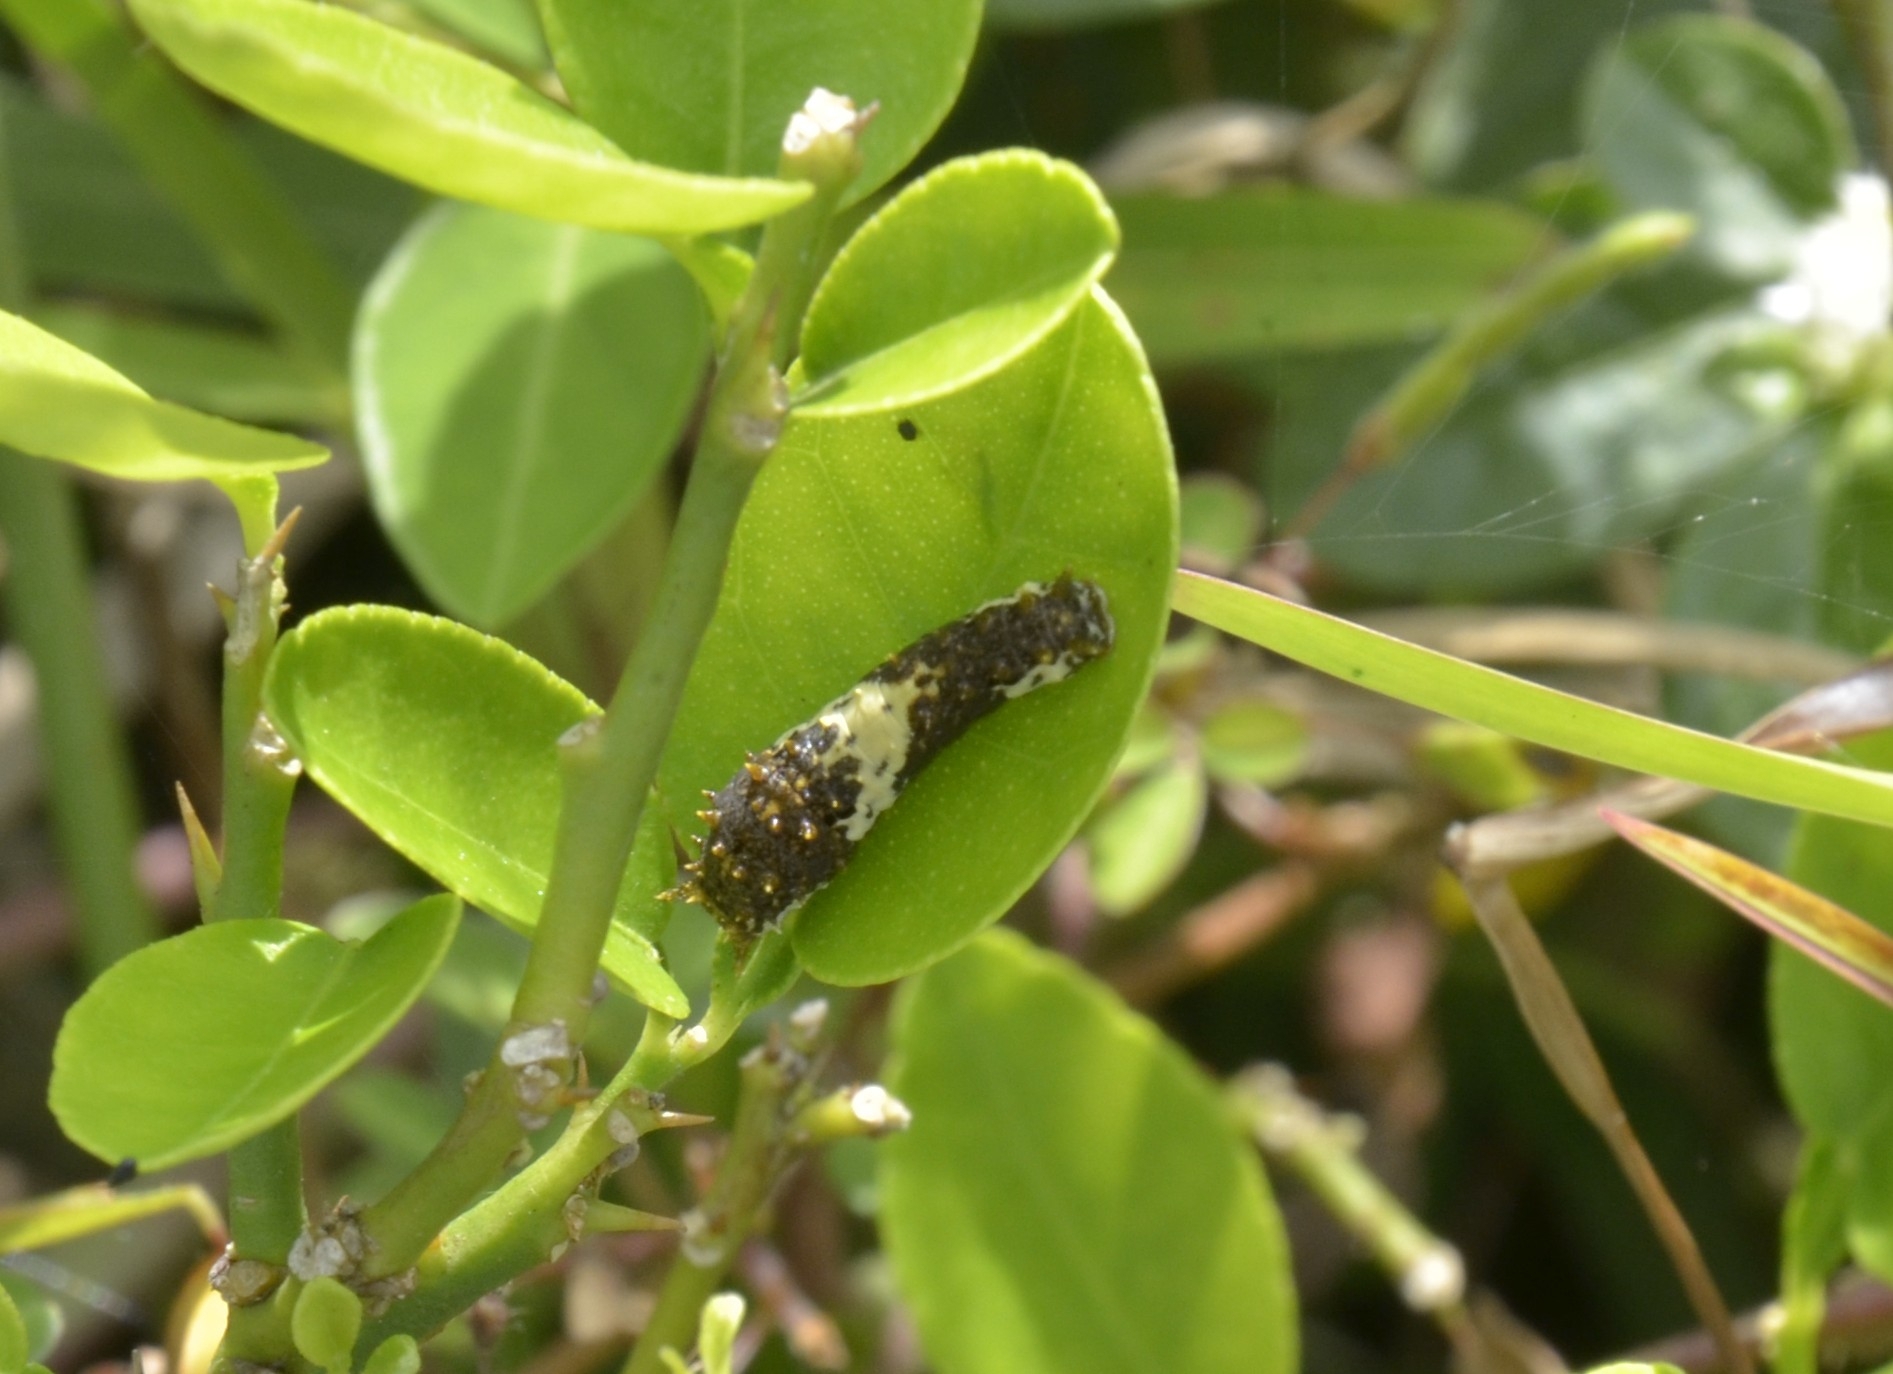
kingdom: Animalia
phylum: Arthropoda
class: Insecta
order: Lepidoptera
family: Papilionidae
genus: Papilio
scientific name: Papilio demoleus
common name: Lime butterfly
